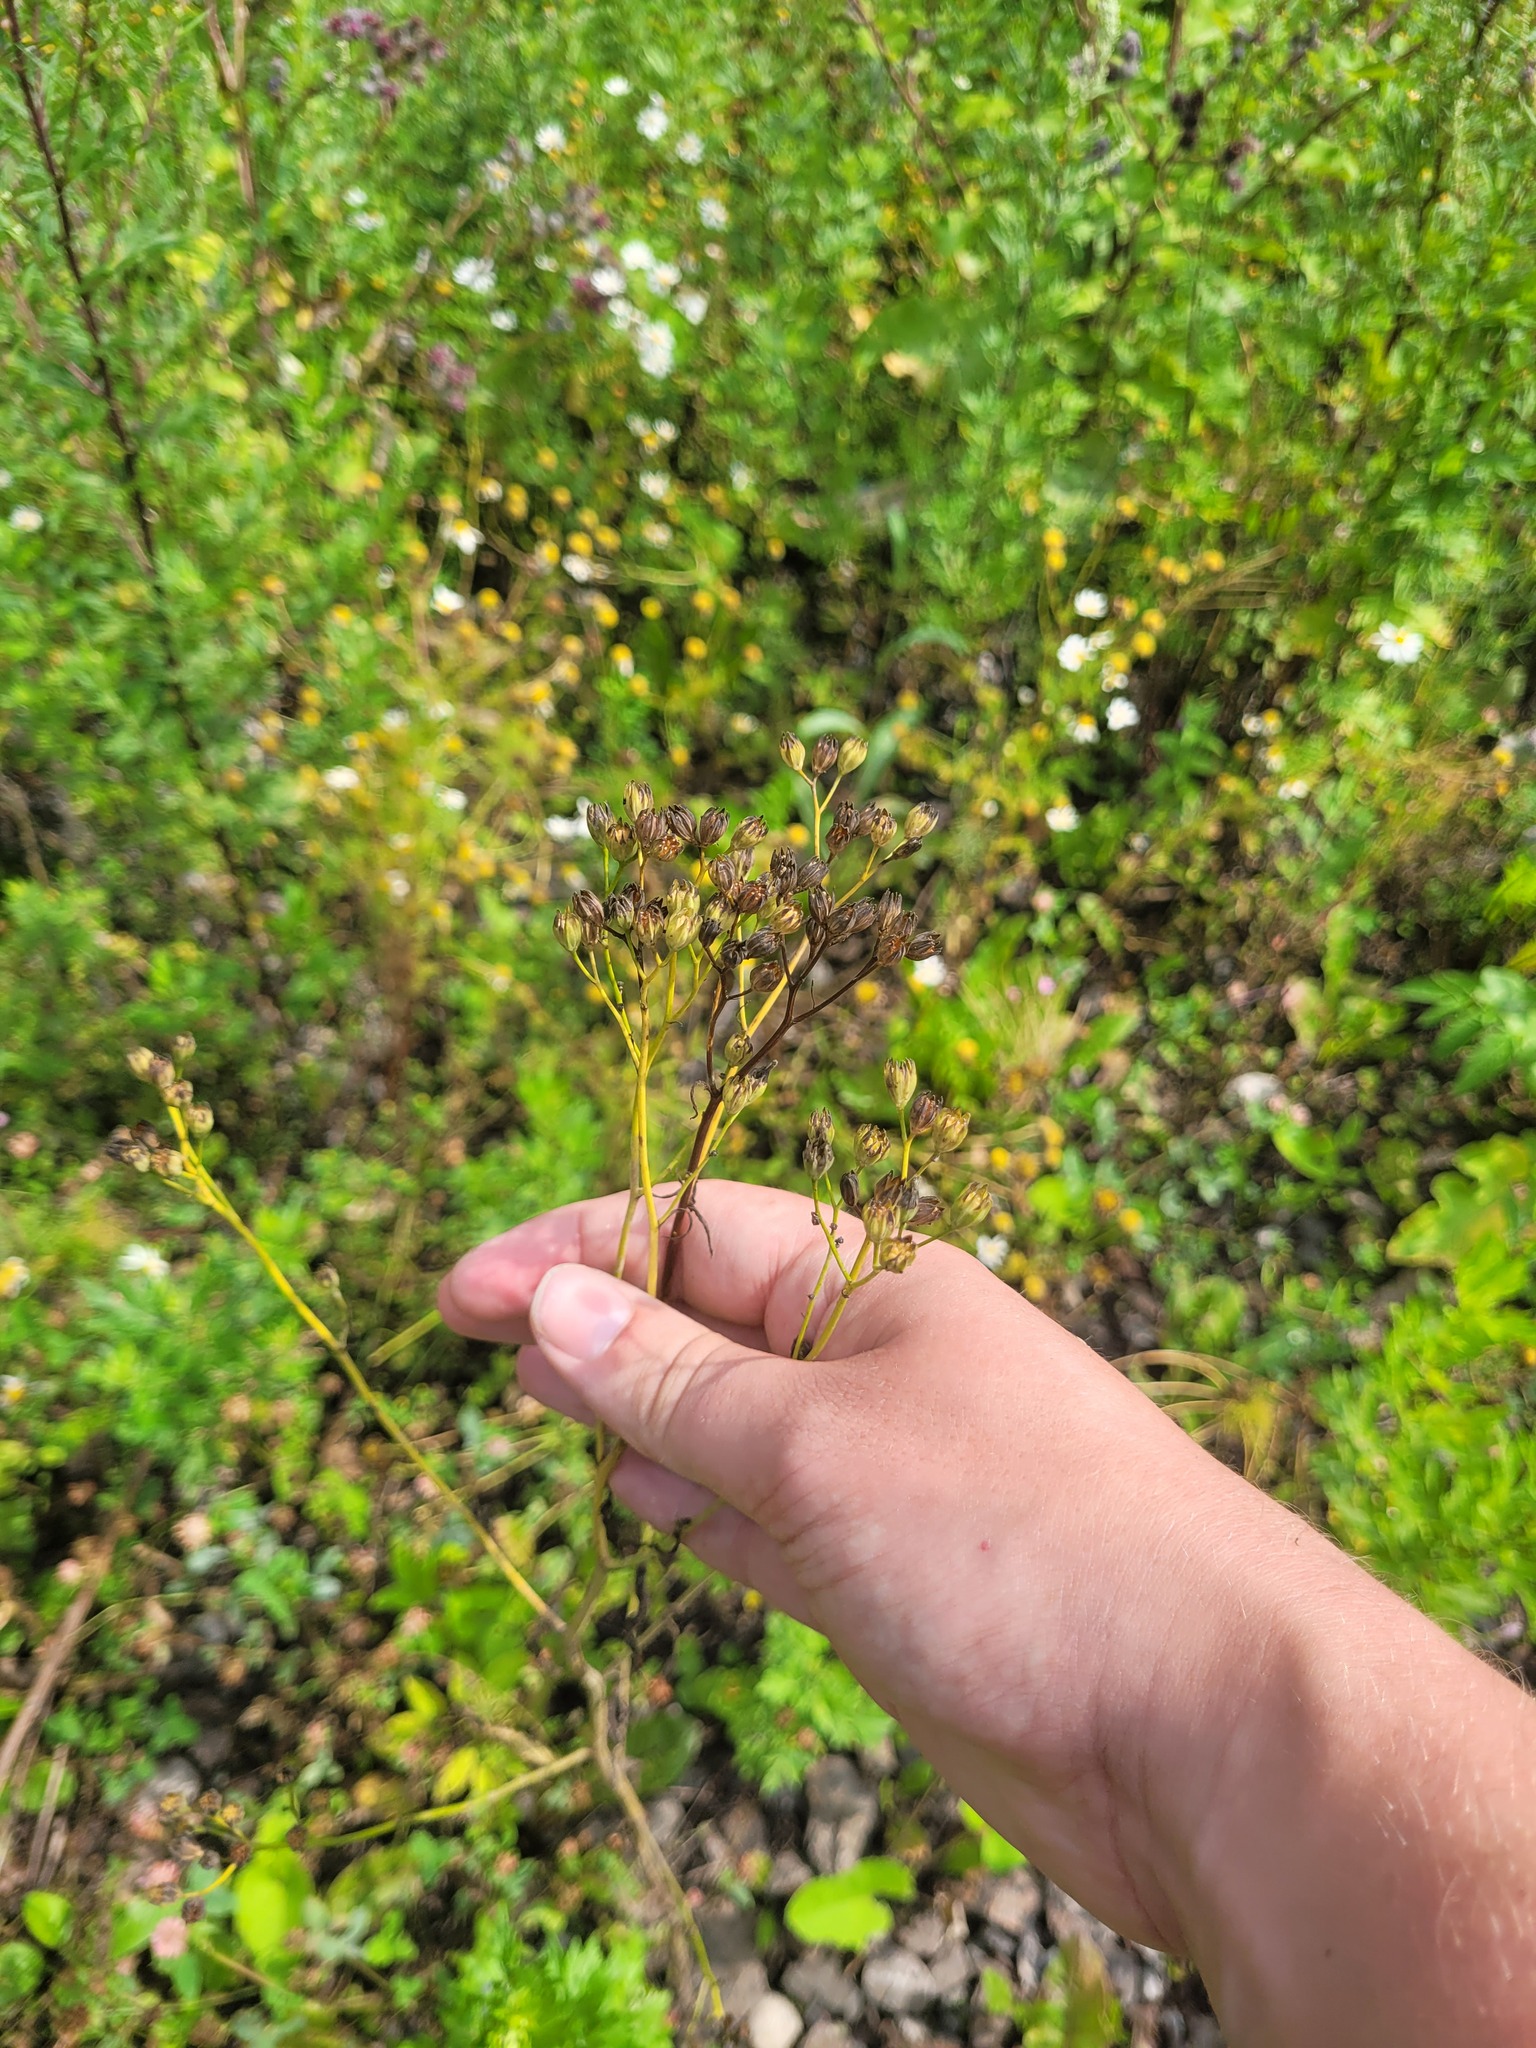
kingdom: Plantae
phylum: Tracheophyta
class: Magnoliopsida
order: Asterales
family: Asteraceae
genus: Lapsana
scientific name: Lapsana communis
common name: Nipplewort
